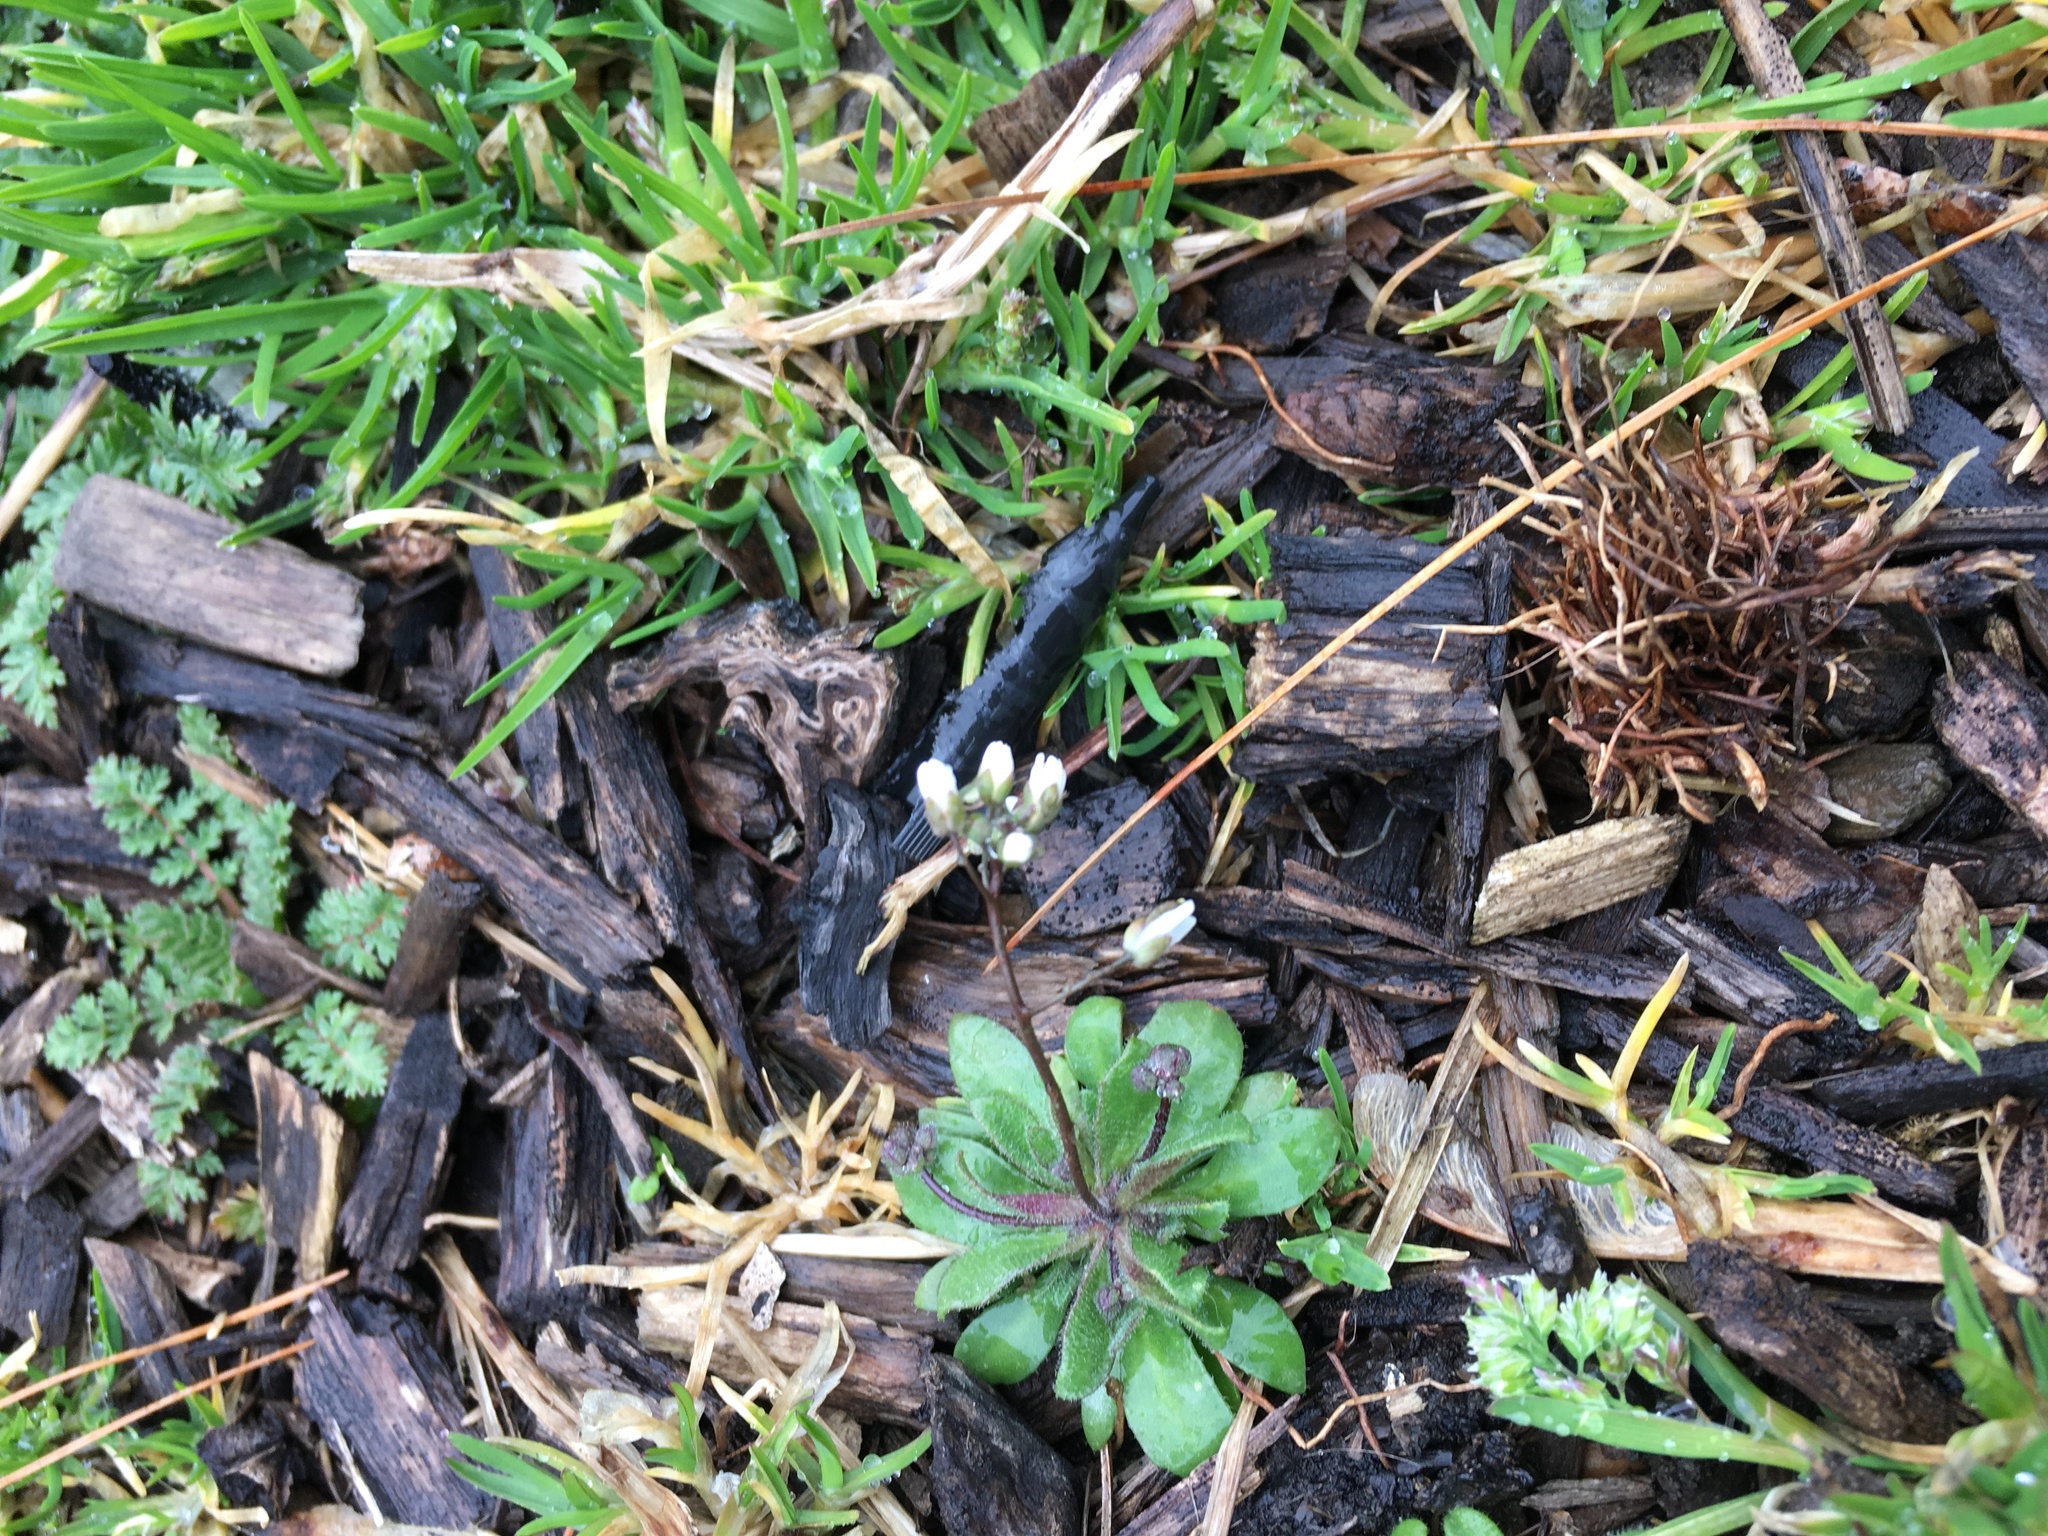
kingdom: Plantae
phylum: Tracheophyta
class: Magnoliopsida
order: Brassicales
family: Brassicaceae
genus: Draba
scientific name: Draba verna
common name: Spring draba
